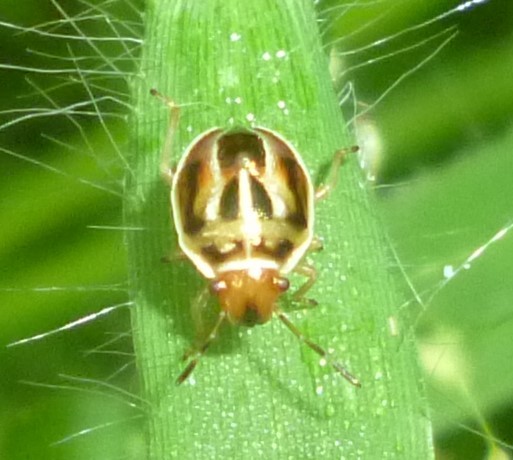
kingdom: Animalia
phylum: Arthropoda
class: Insecta
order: Hemiptera
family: Pentatomidae
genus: Mormidea
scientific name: Mormidea lugens
